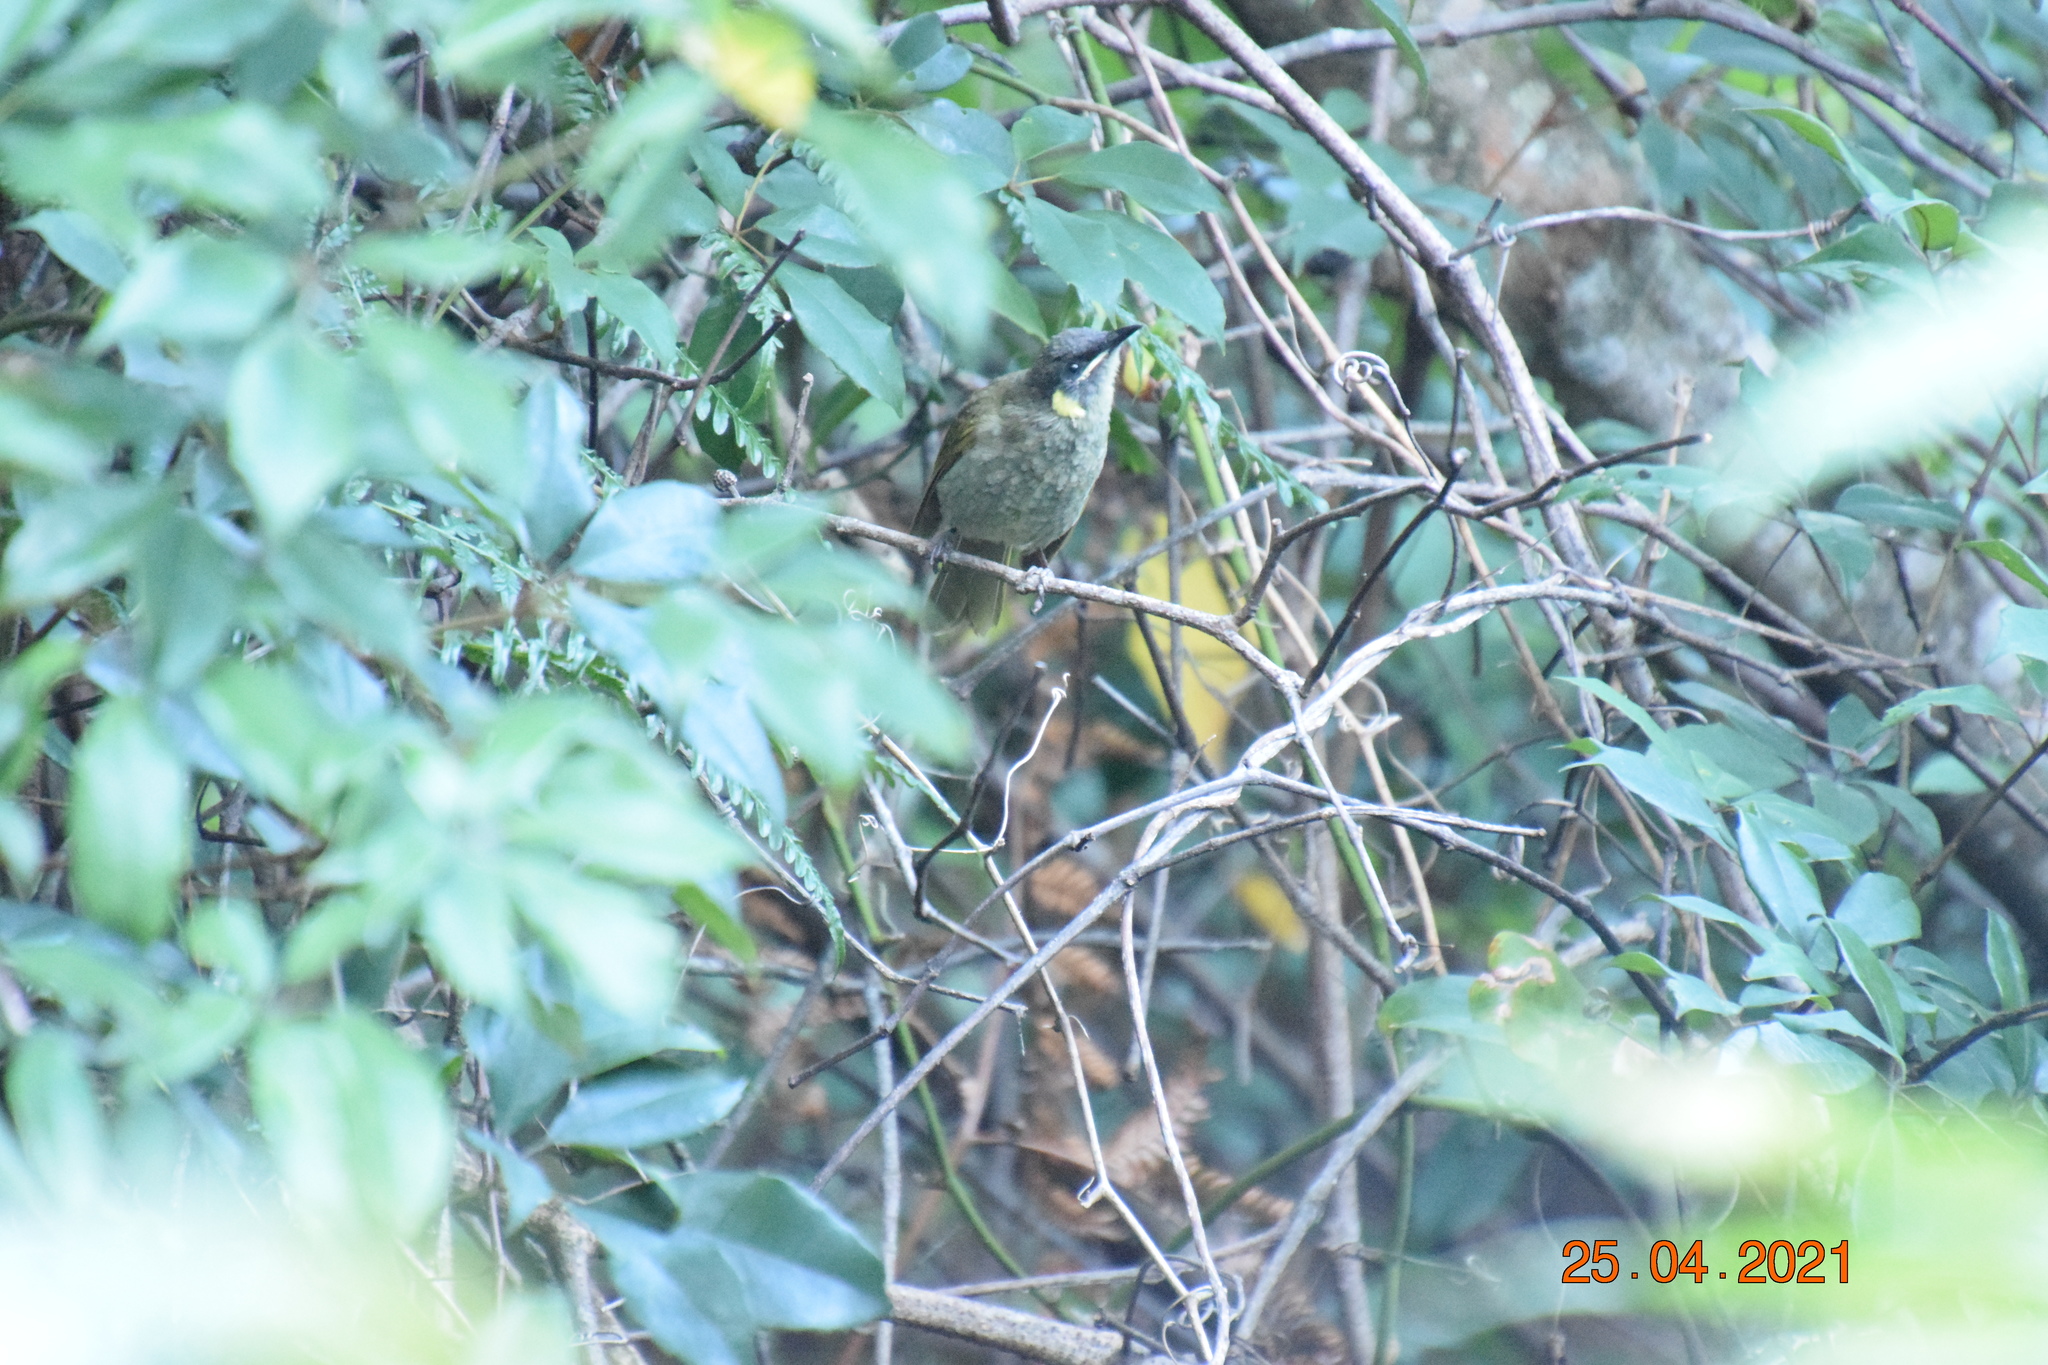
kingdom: Animalia
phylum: Chordata
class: Aves
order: Passeriformes
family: Meliphagidae
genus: Meliphaga
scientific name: Meliphaga lewinii
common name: Lewin's honeyeater
